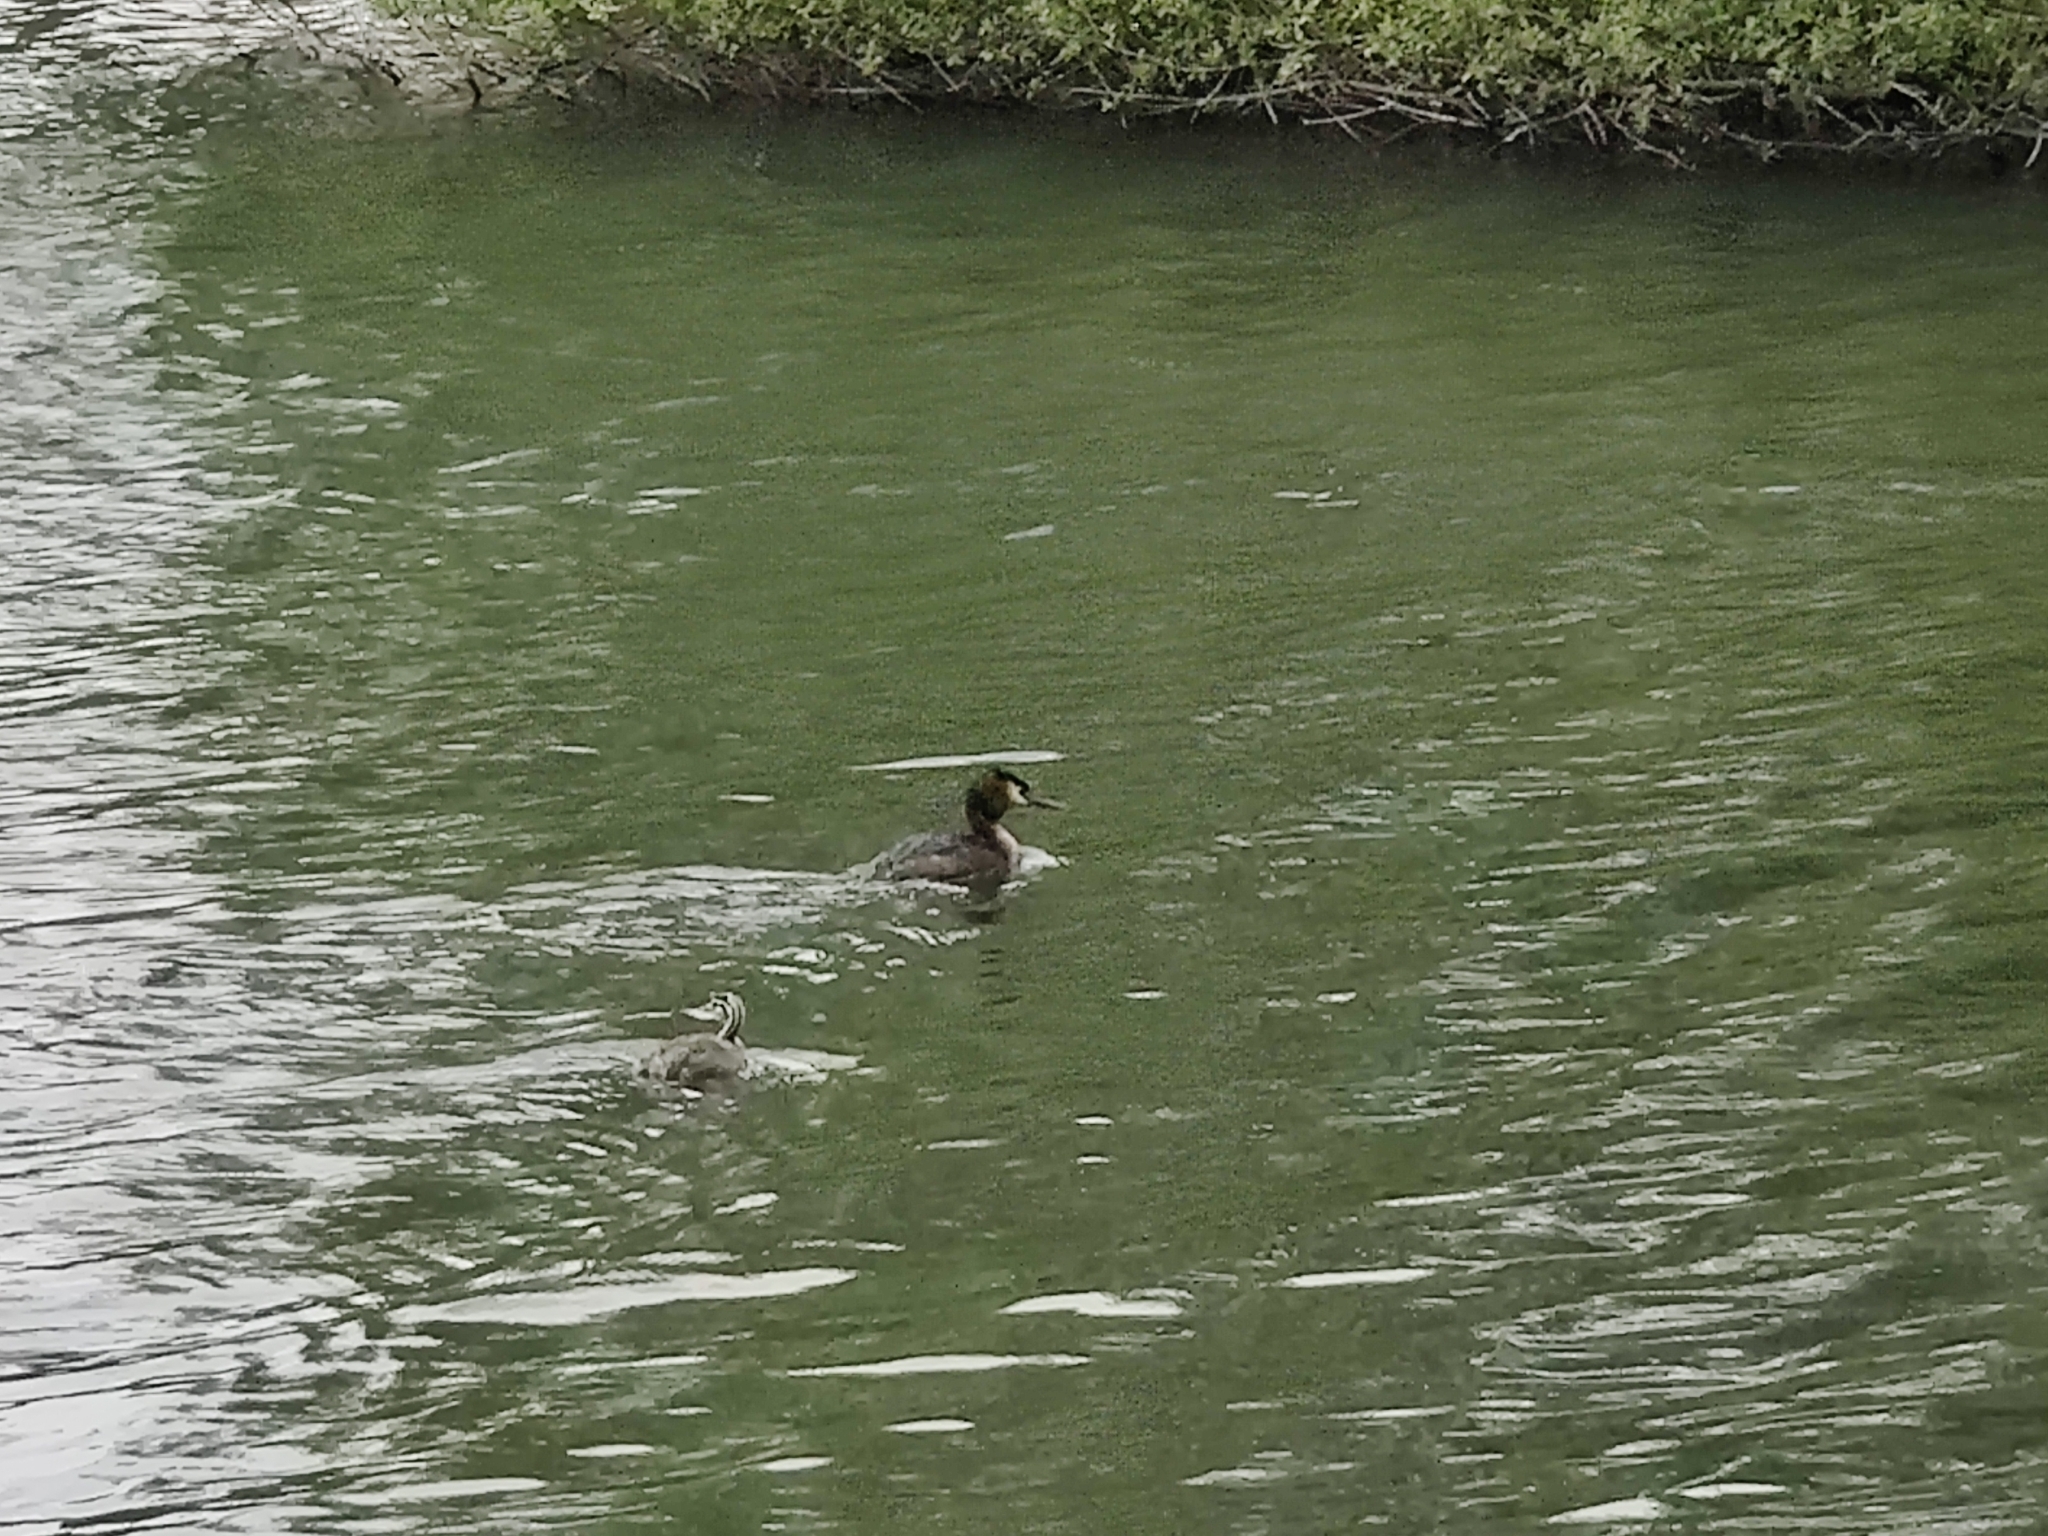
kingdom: Animalia
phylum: Chordata
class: Aves
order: Podicipediformes
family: Podicipedidae
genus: Podiceps
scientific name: Podiceps cristatus
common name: Great crested grebe
